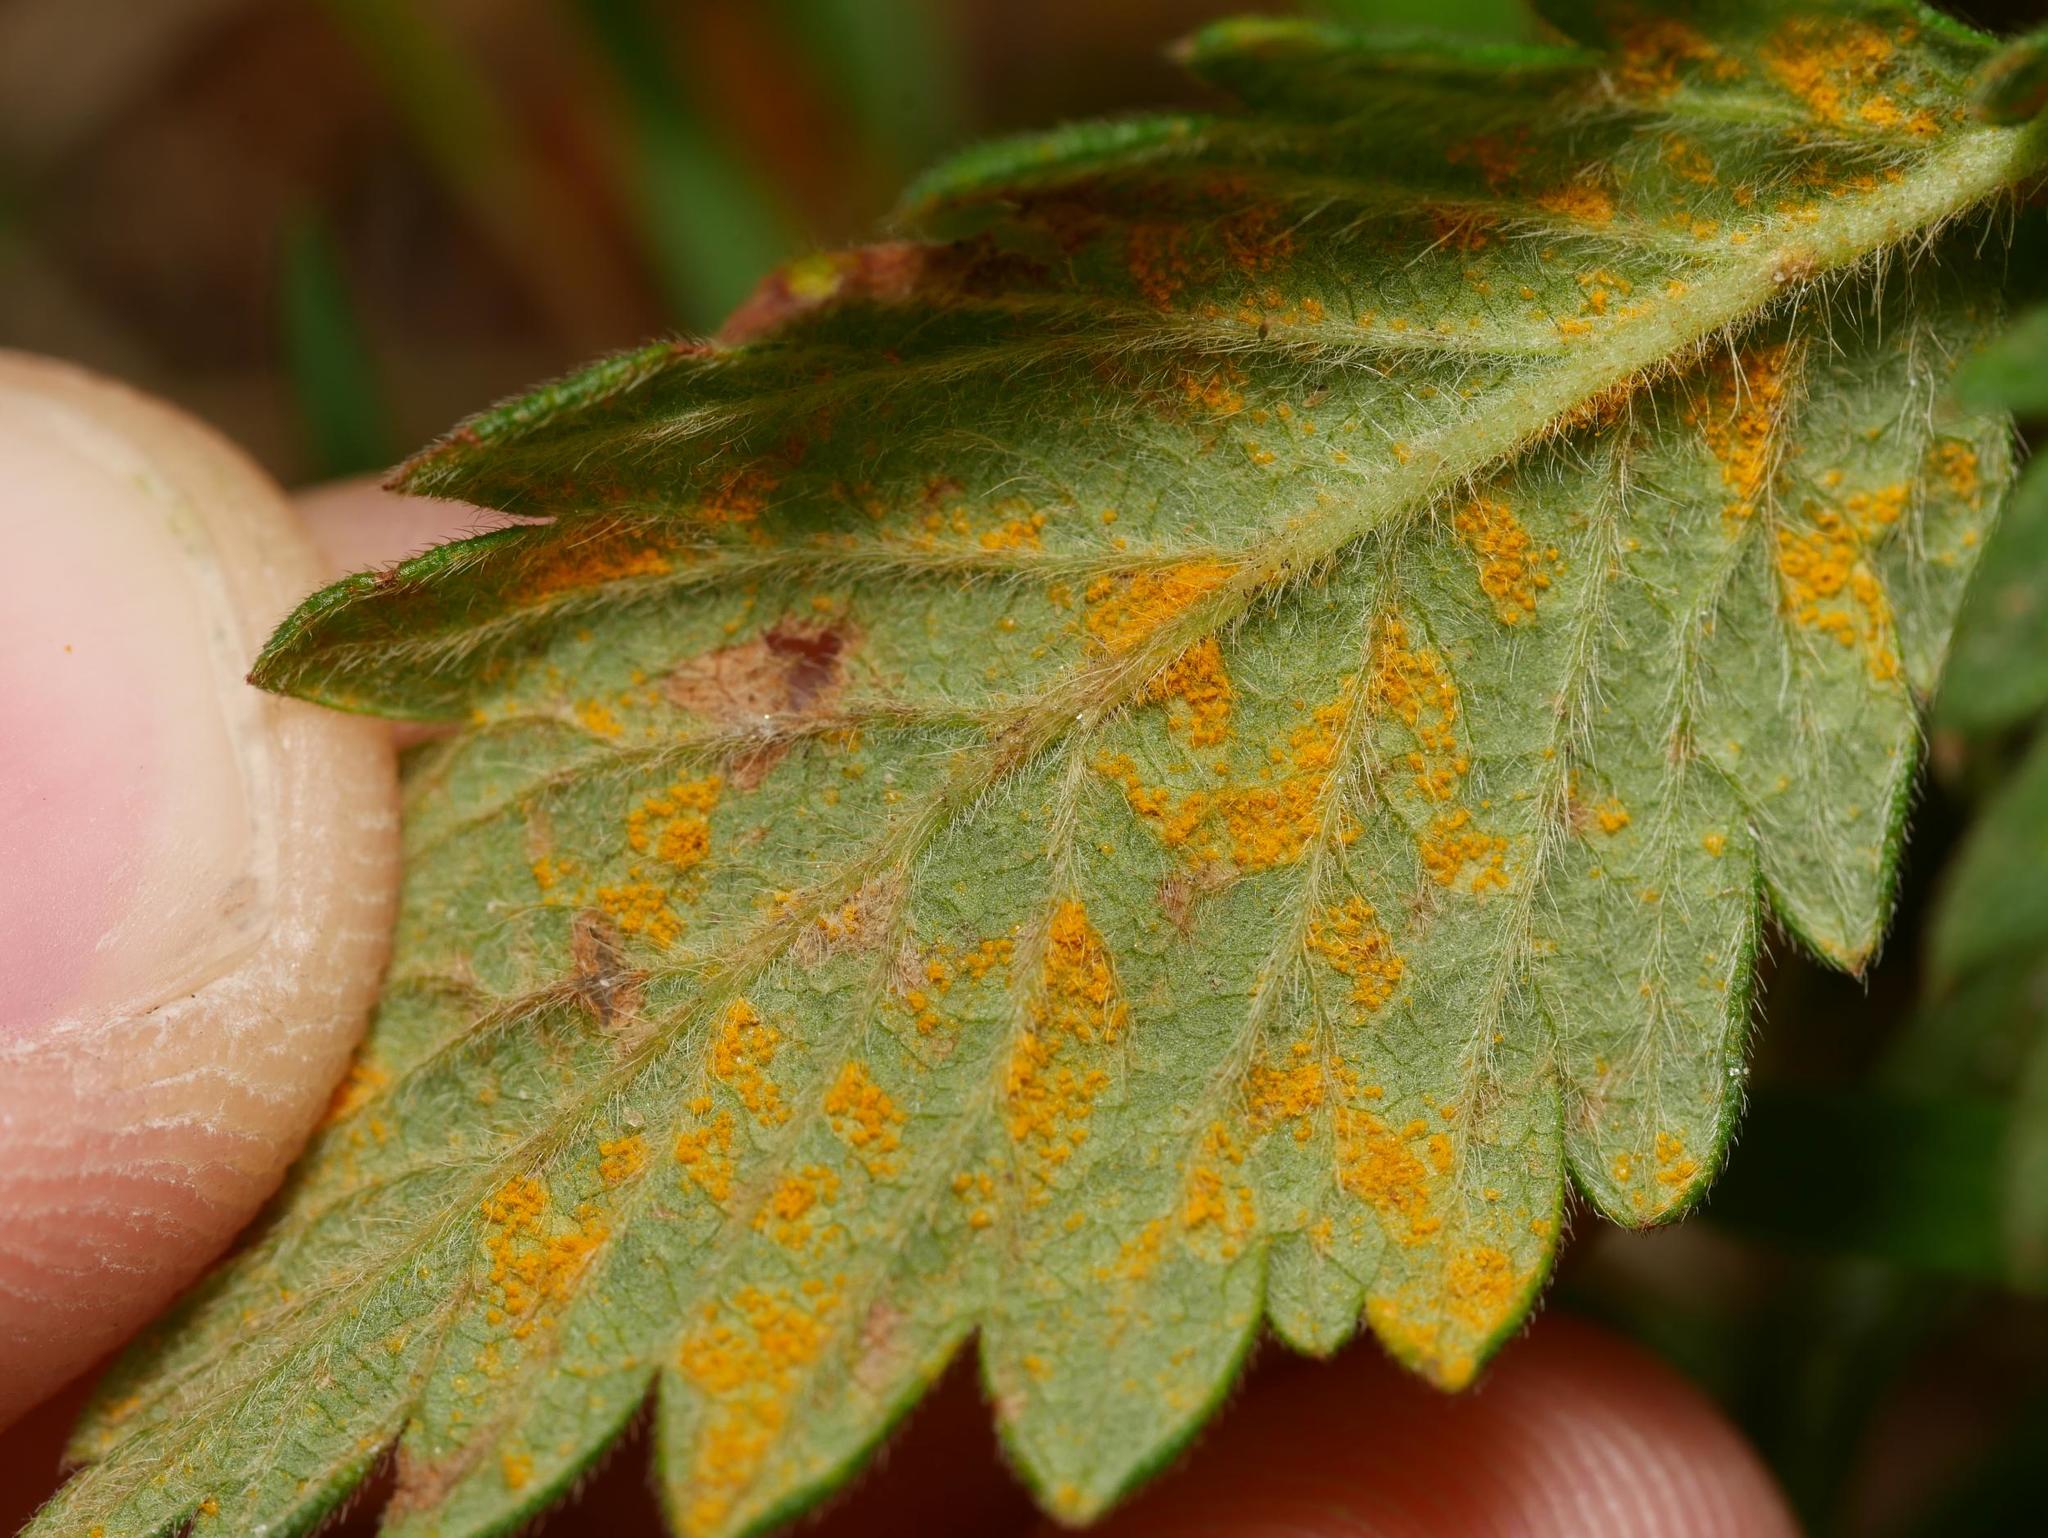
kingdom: Fungi
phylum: Basidiomycota
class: Pucciniomycetes
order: Pucciniales
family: Cronartiaceae
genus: Quasipucciniastrum
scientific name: Quasipucciniastrum ochraceum
